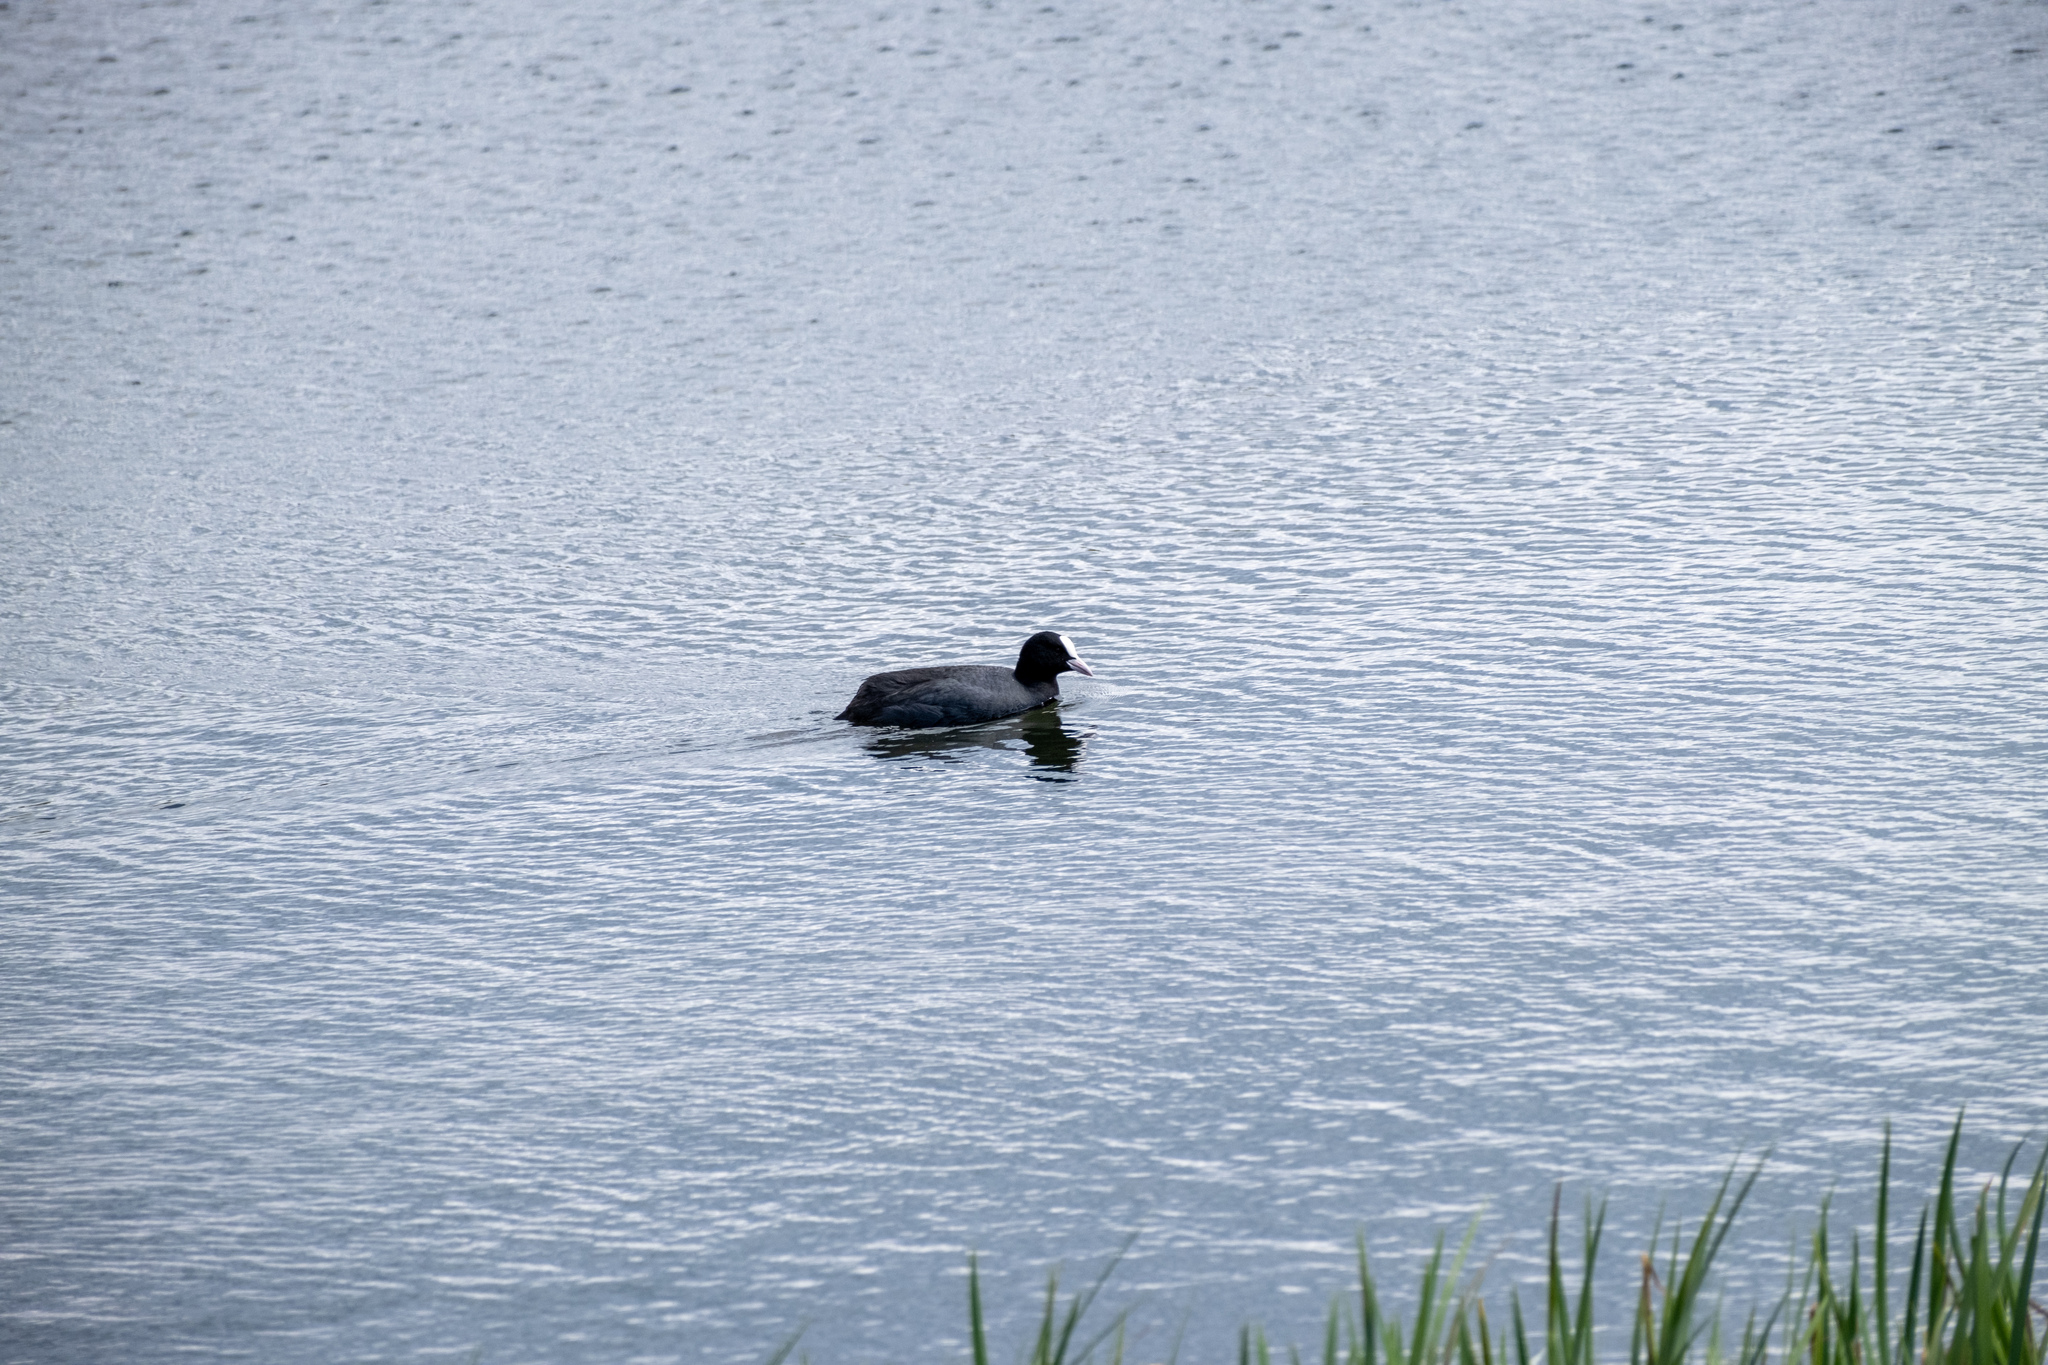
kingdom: Animalia
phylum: Chordata
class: Aves
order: Gruiformes
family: Rallidae
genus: Fulica
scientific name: Fulica atra
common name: Eurasian coot
